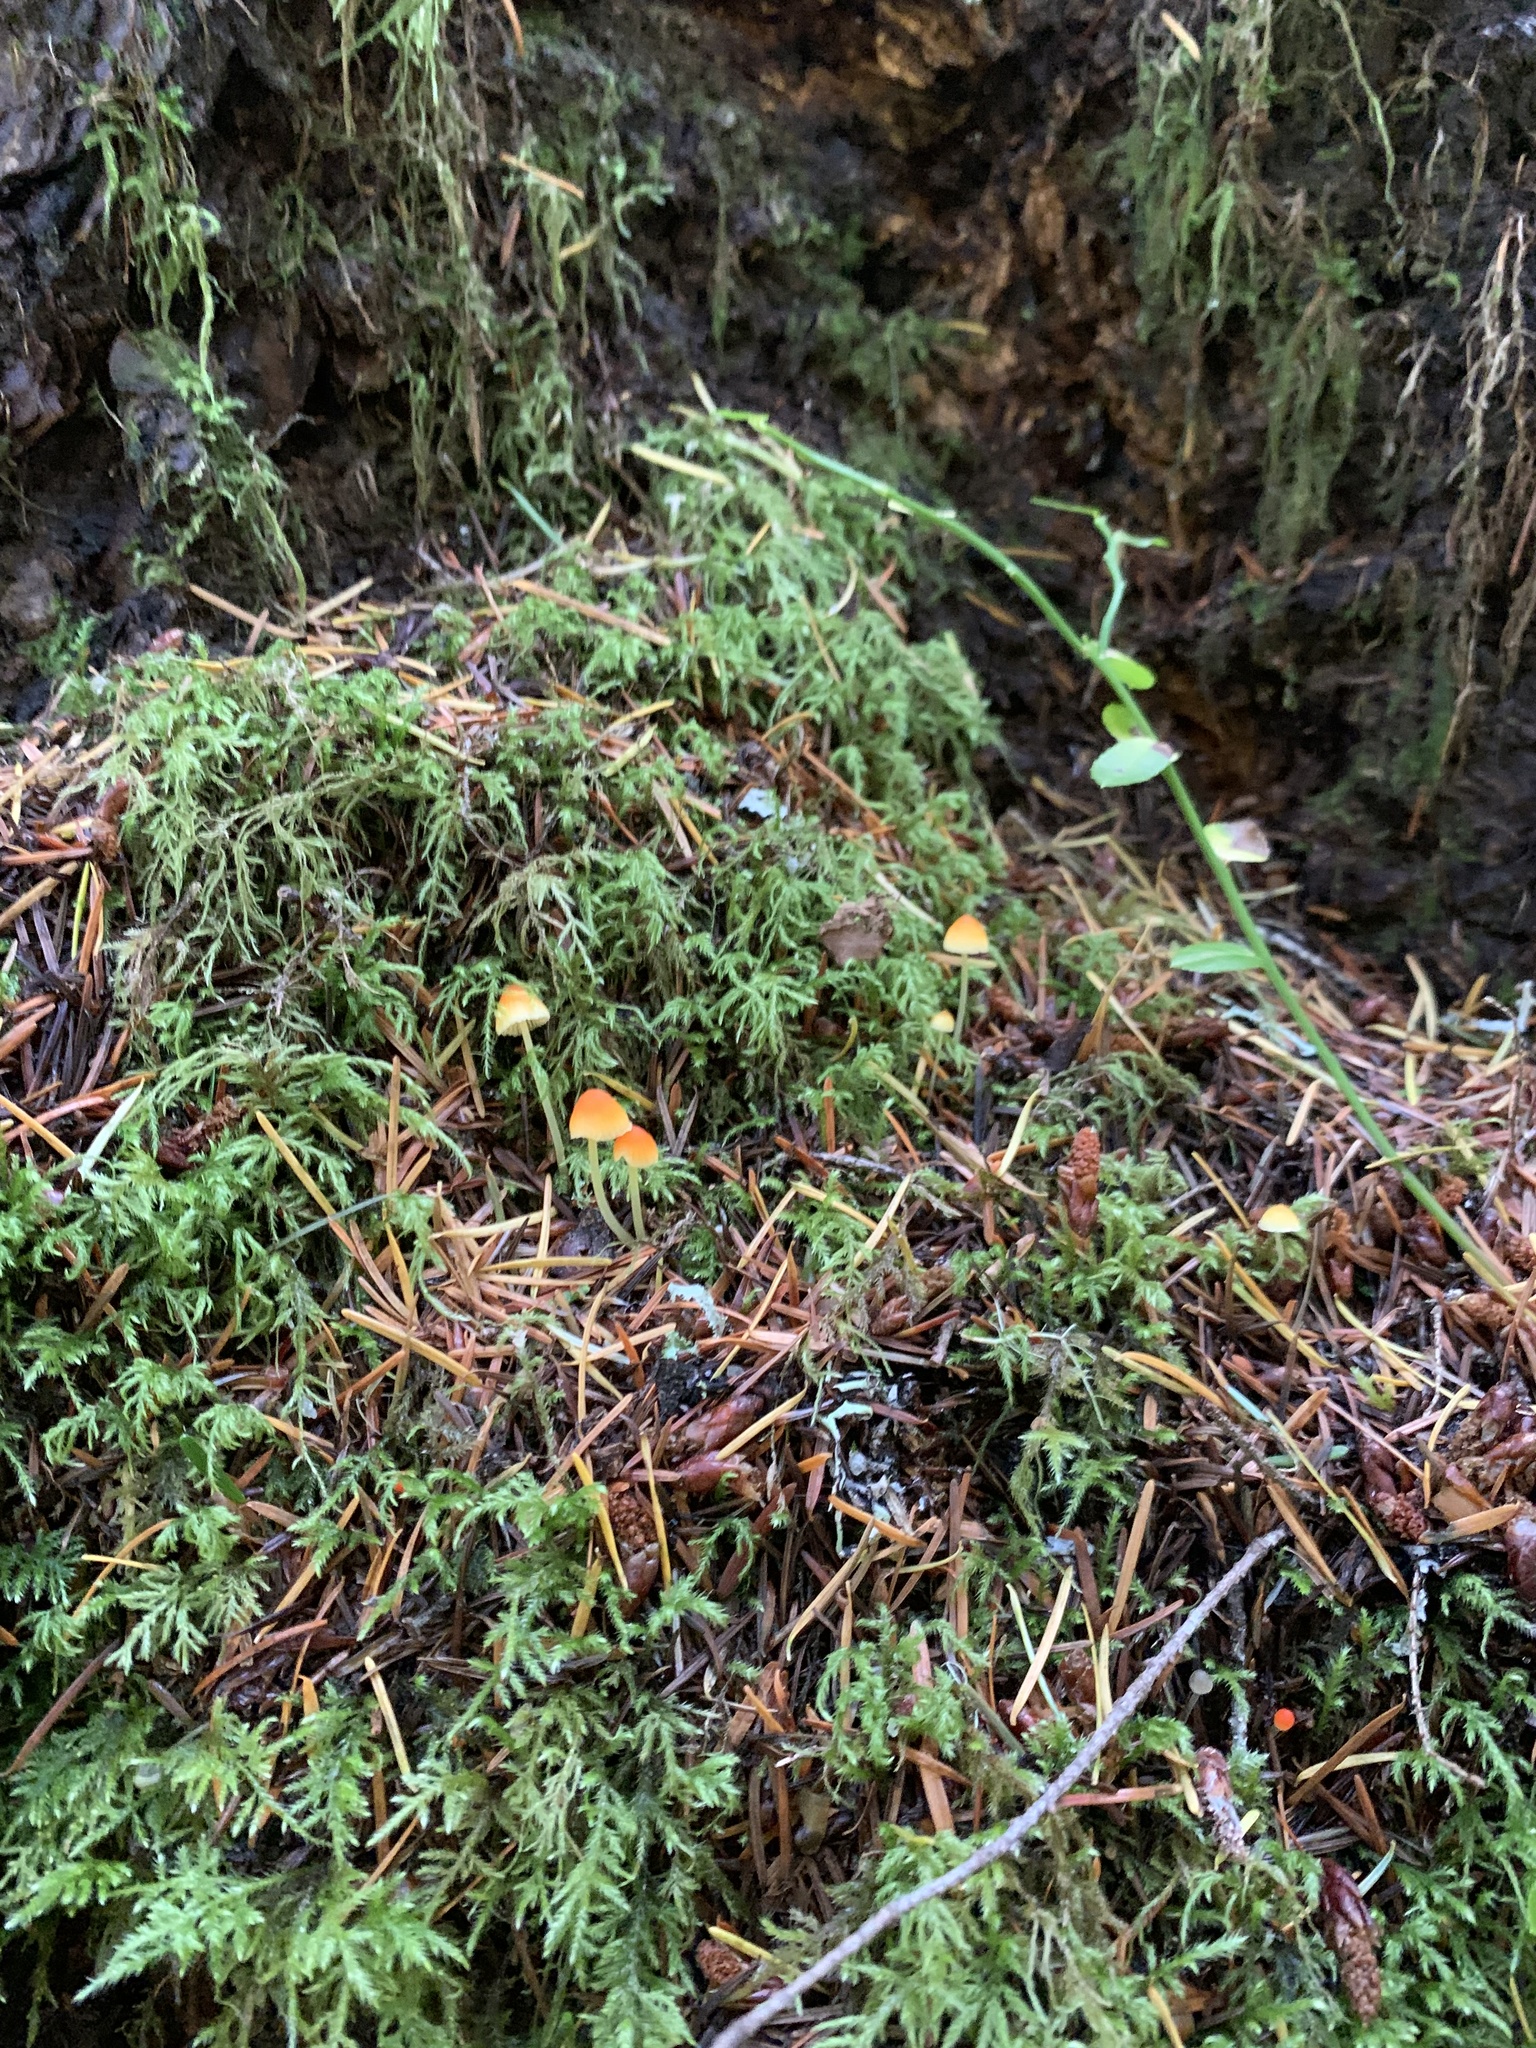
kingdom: Fungi
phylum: Basidiomycota
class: Agaricomycetes
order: Agaricales
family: Mycenaceae
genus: Atheniella
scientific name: Atheniella aurantiidisca
